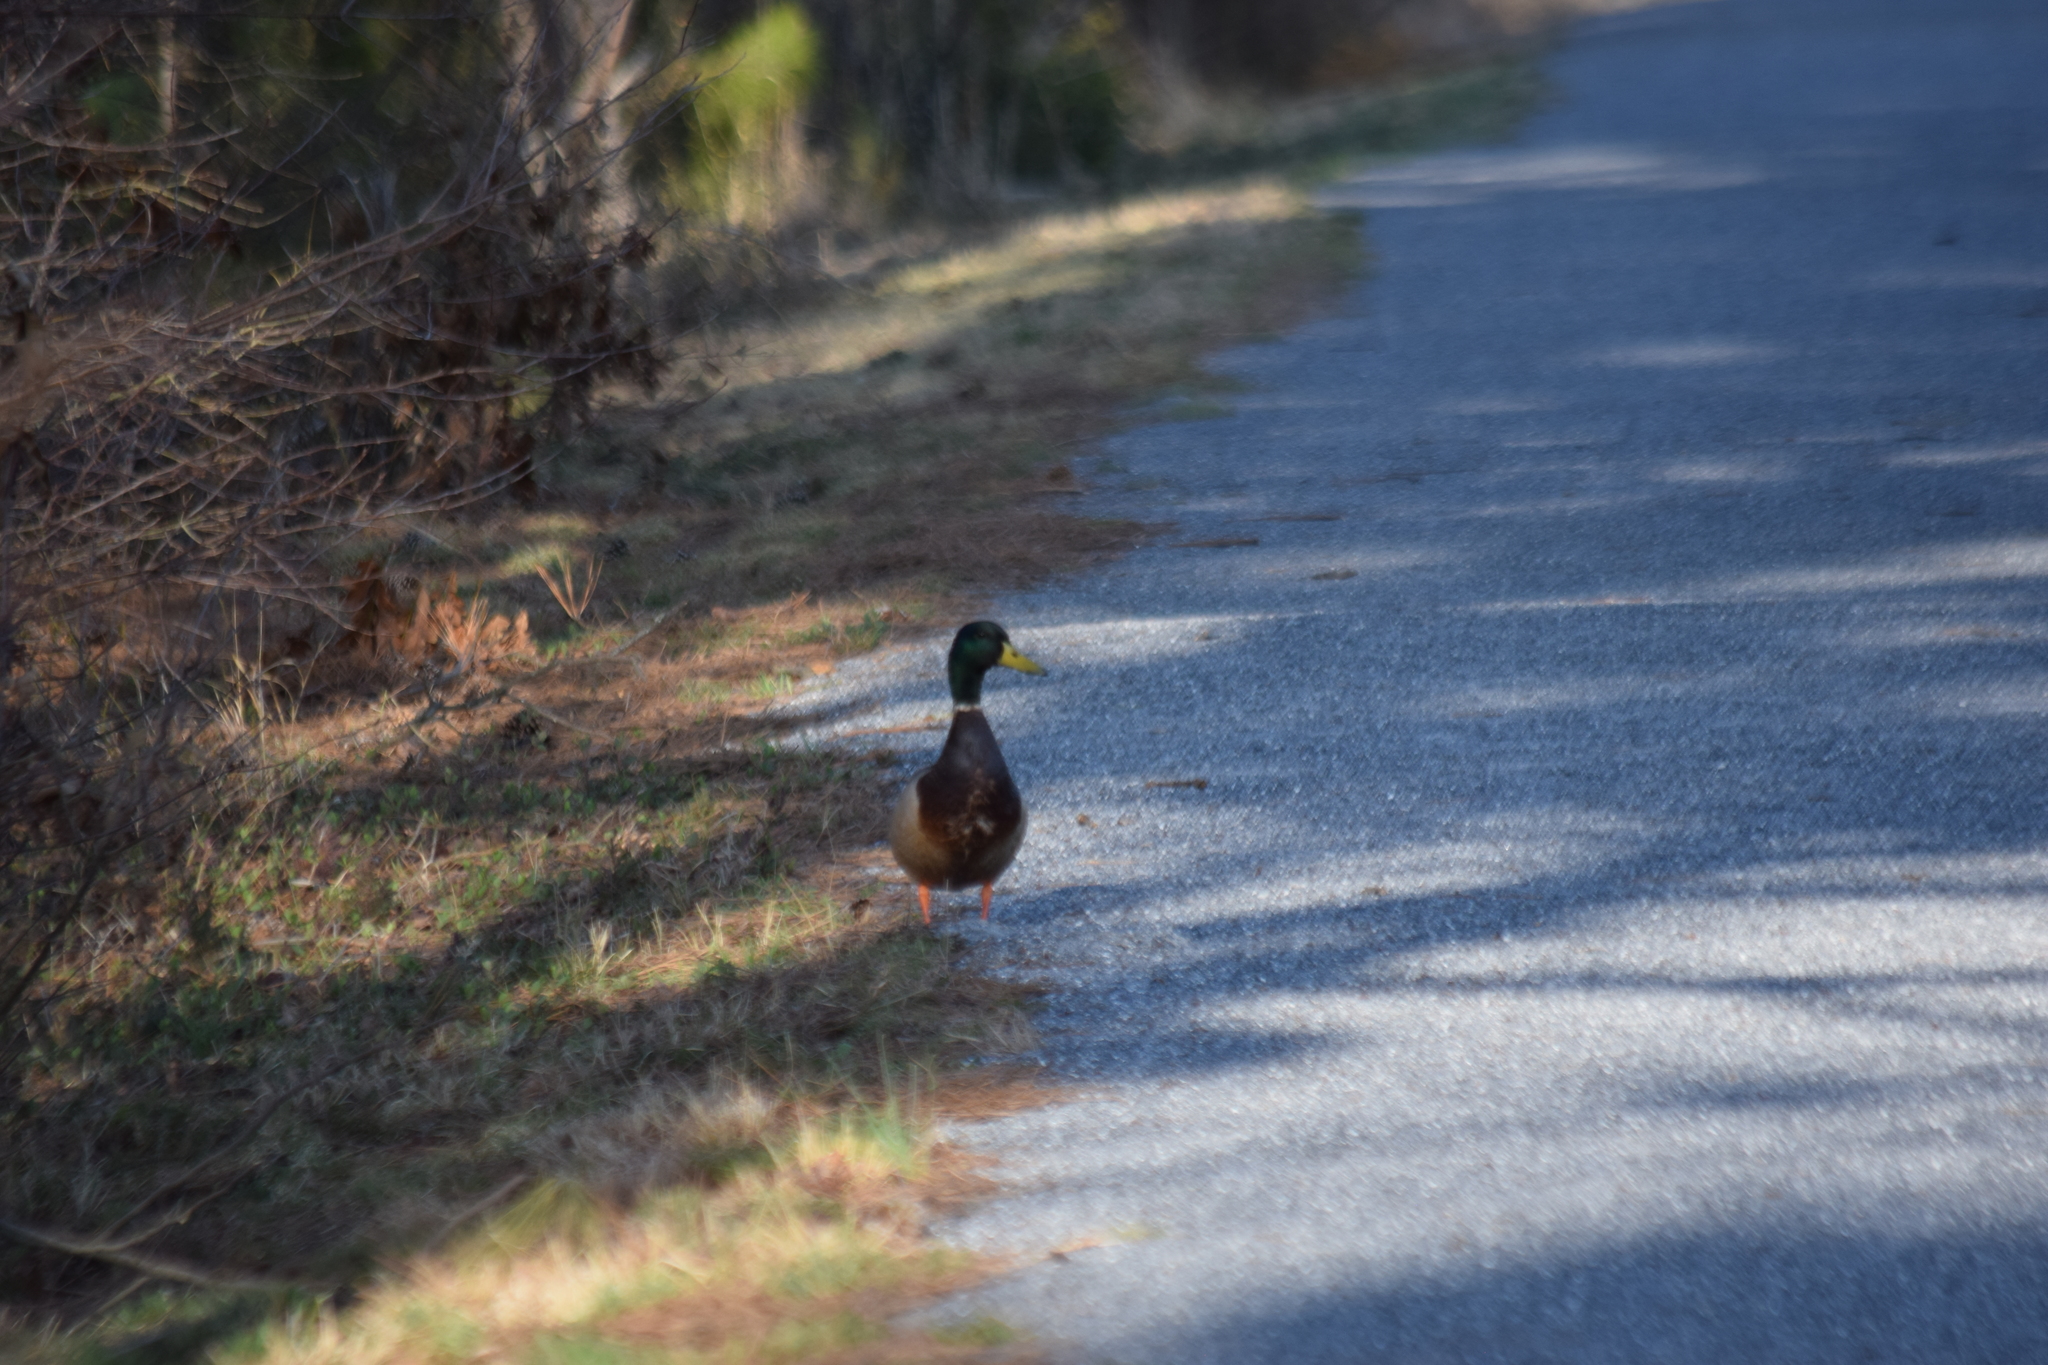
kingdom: Animalia
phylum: Chordata
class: Aves
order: Anseriformes
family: Anatidae
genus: Anas
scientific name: Anas platyrhynchos
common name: Mallard
